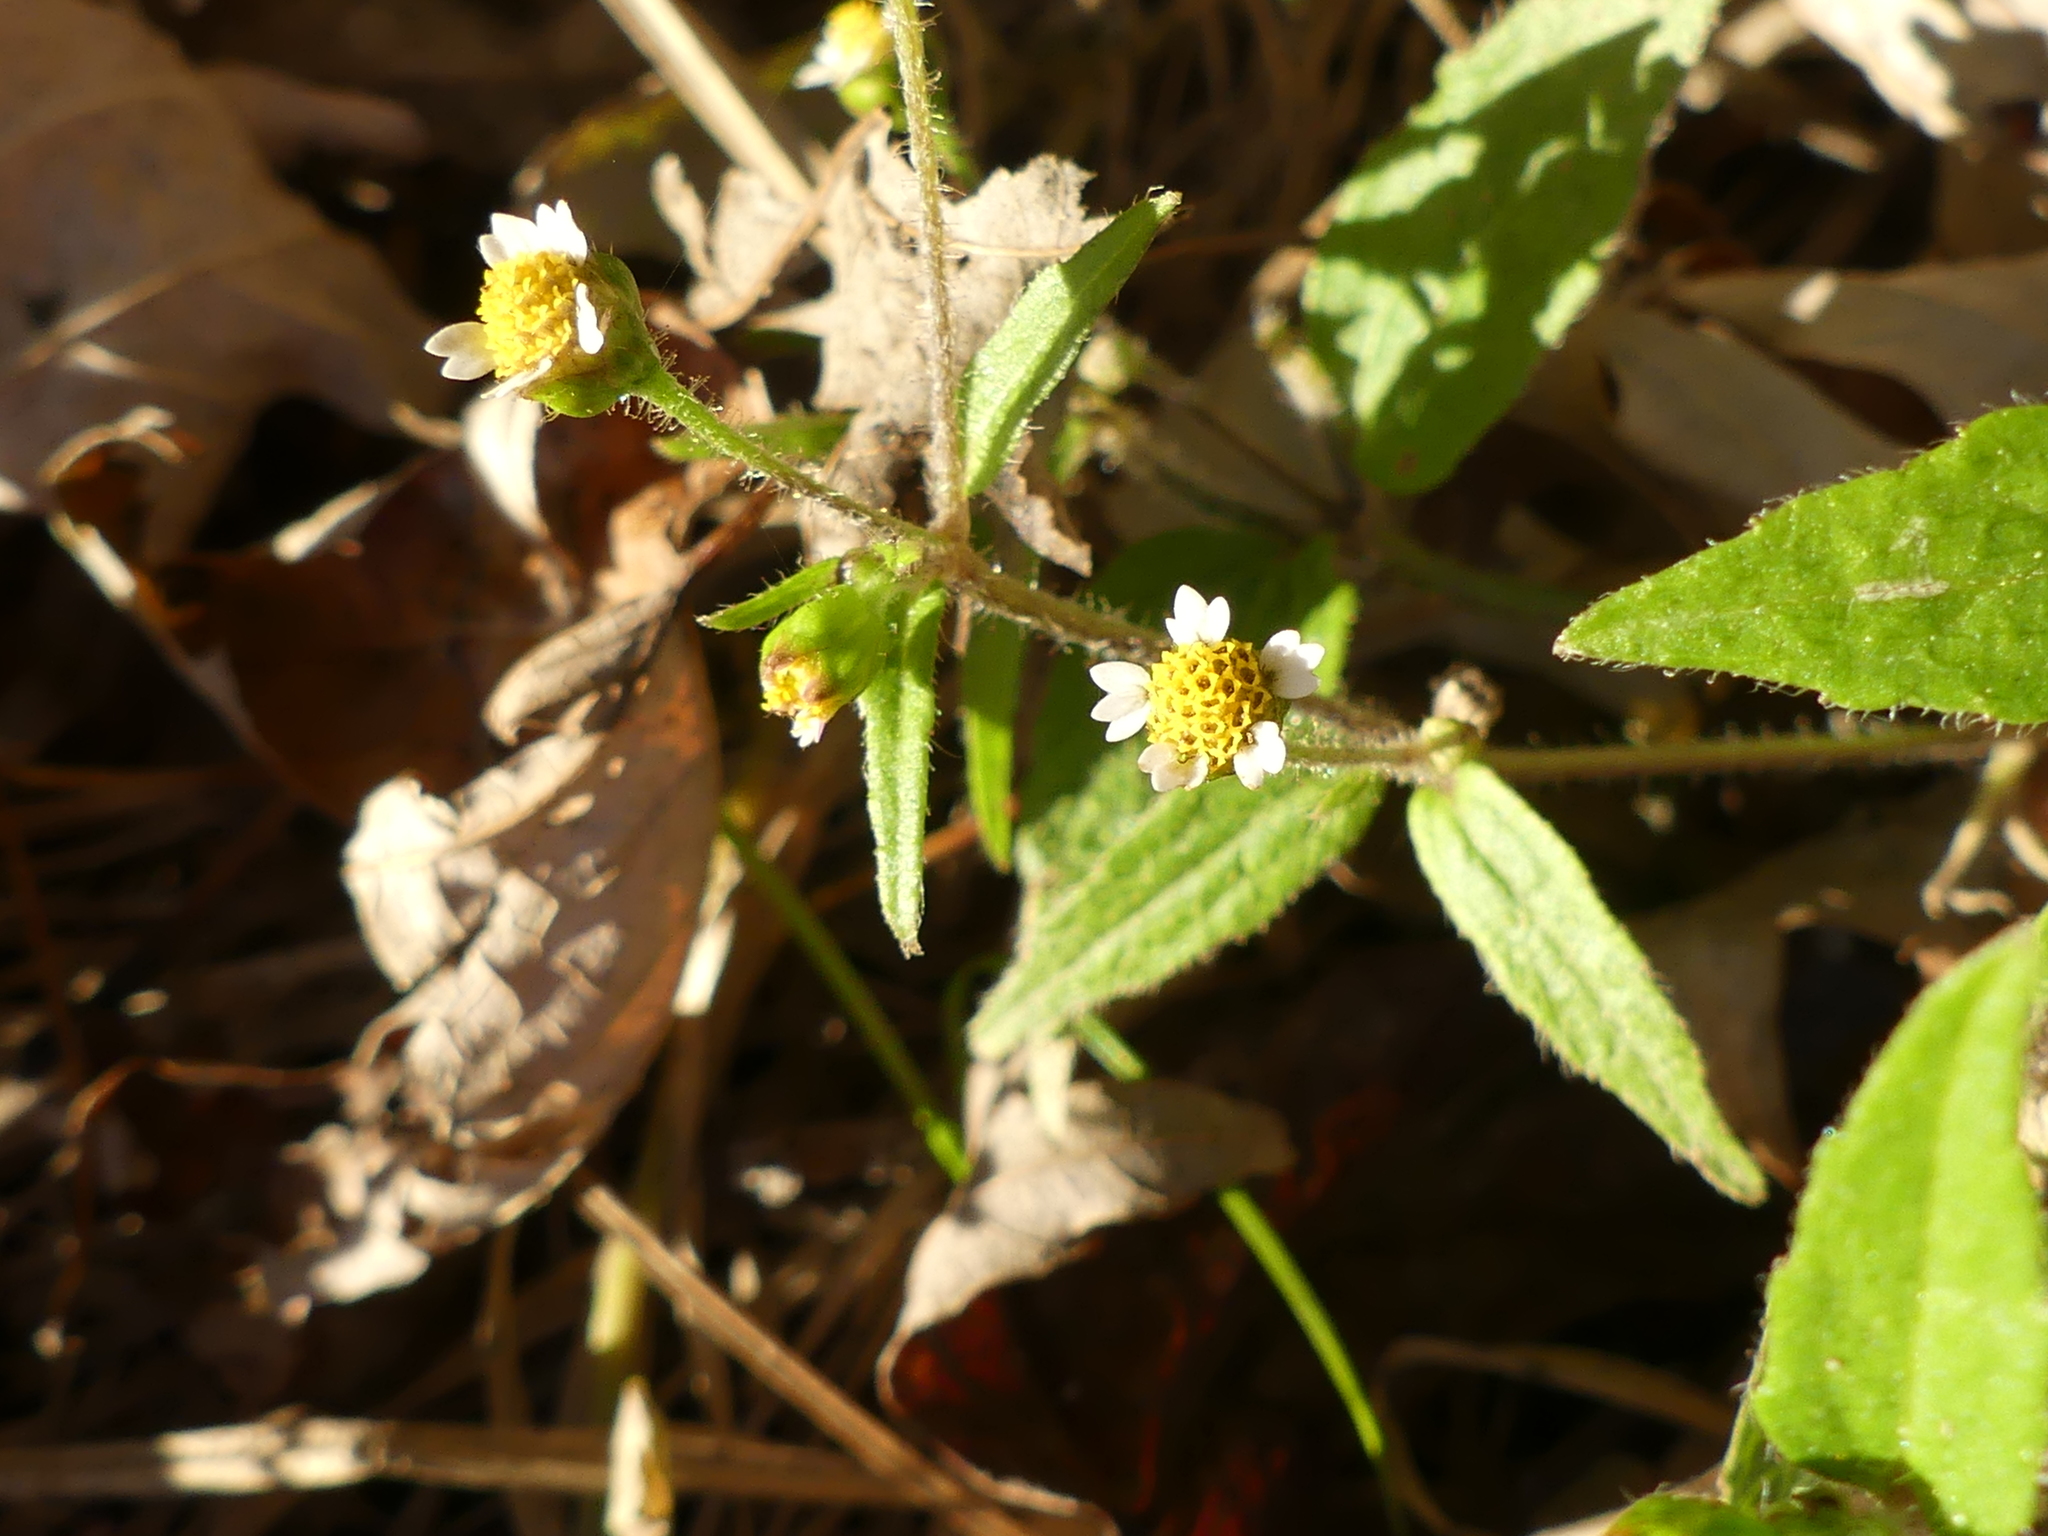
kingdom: Plantae
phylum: Tracheophyta
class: Magnoliopsida
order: Asterales
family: Asteraceae
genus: Galinsoga
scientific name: Galinsoga quadriradiata
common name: Shaggy soldier
